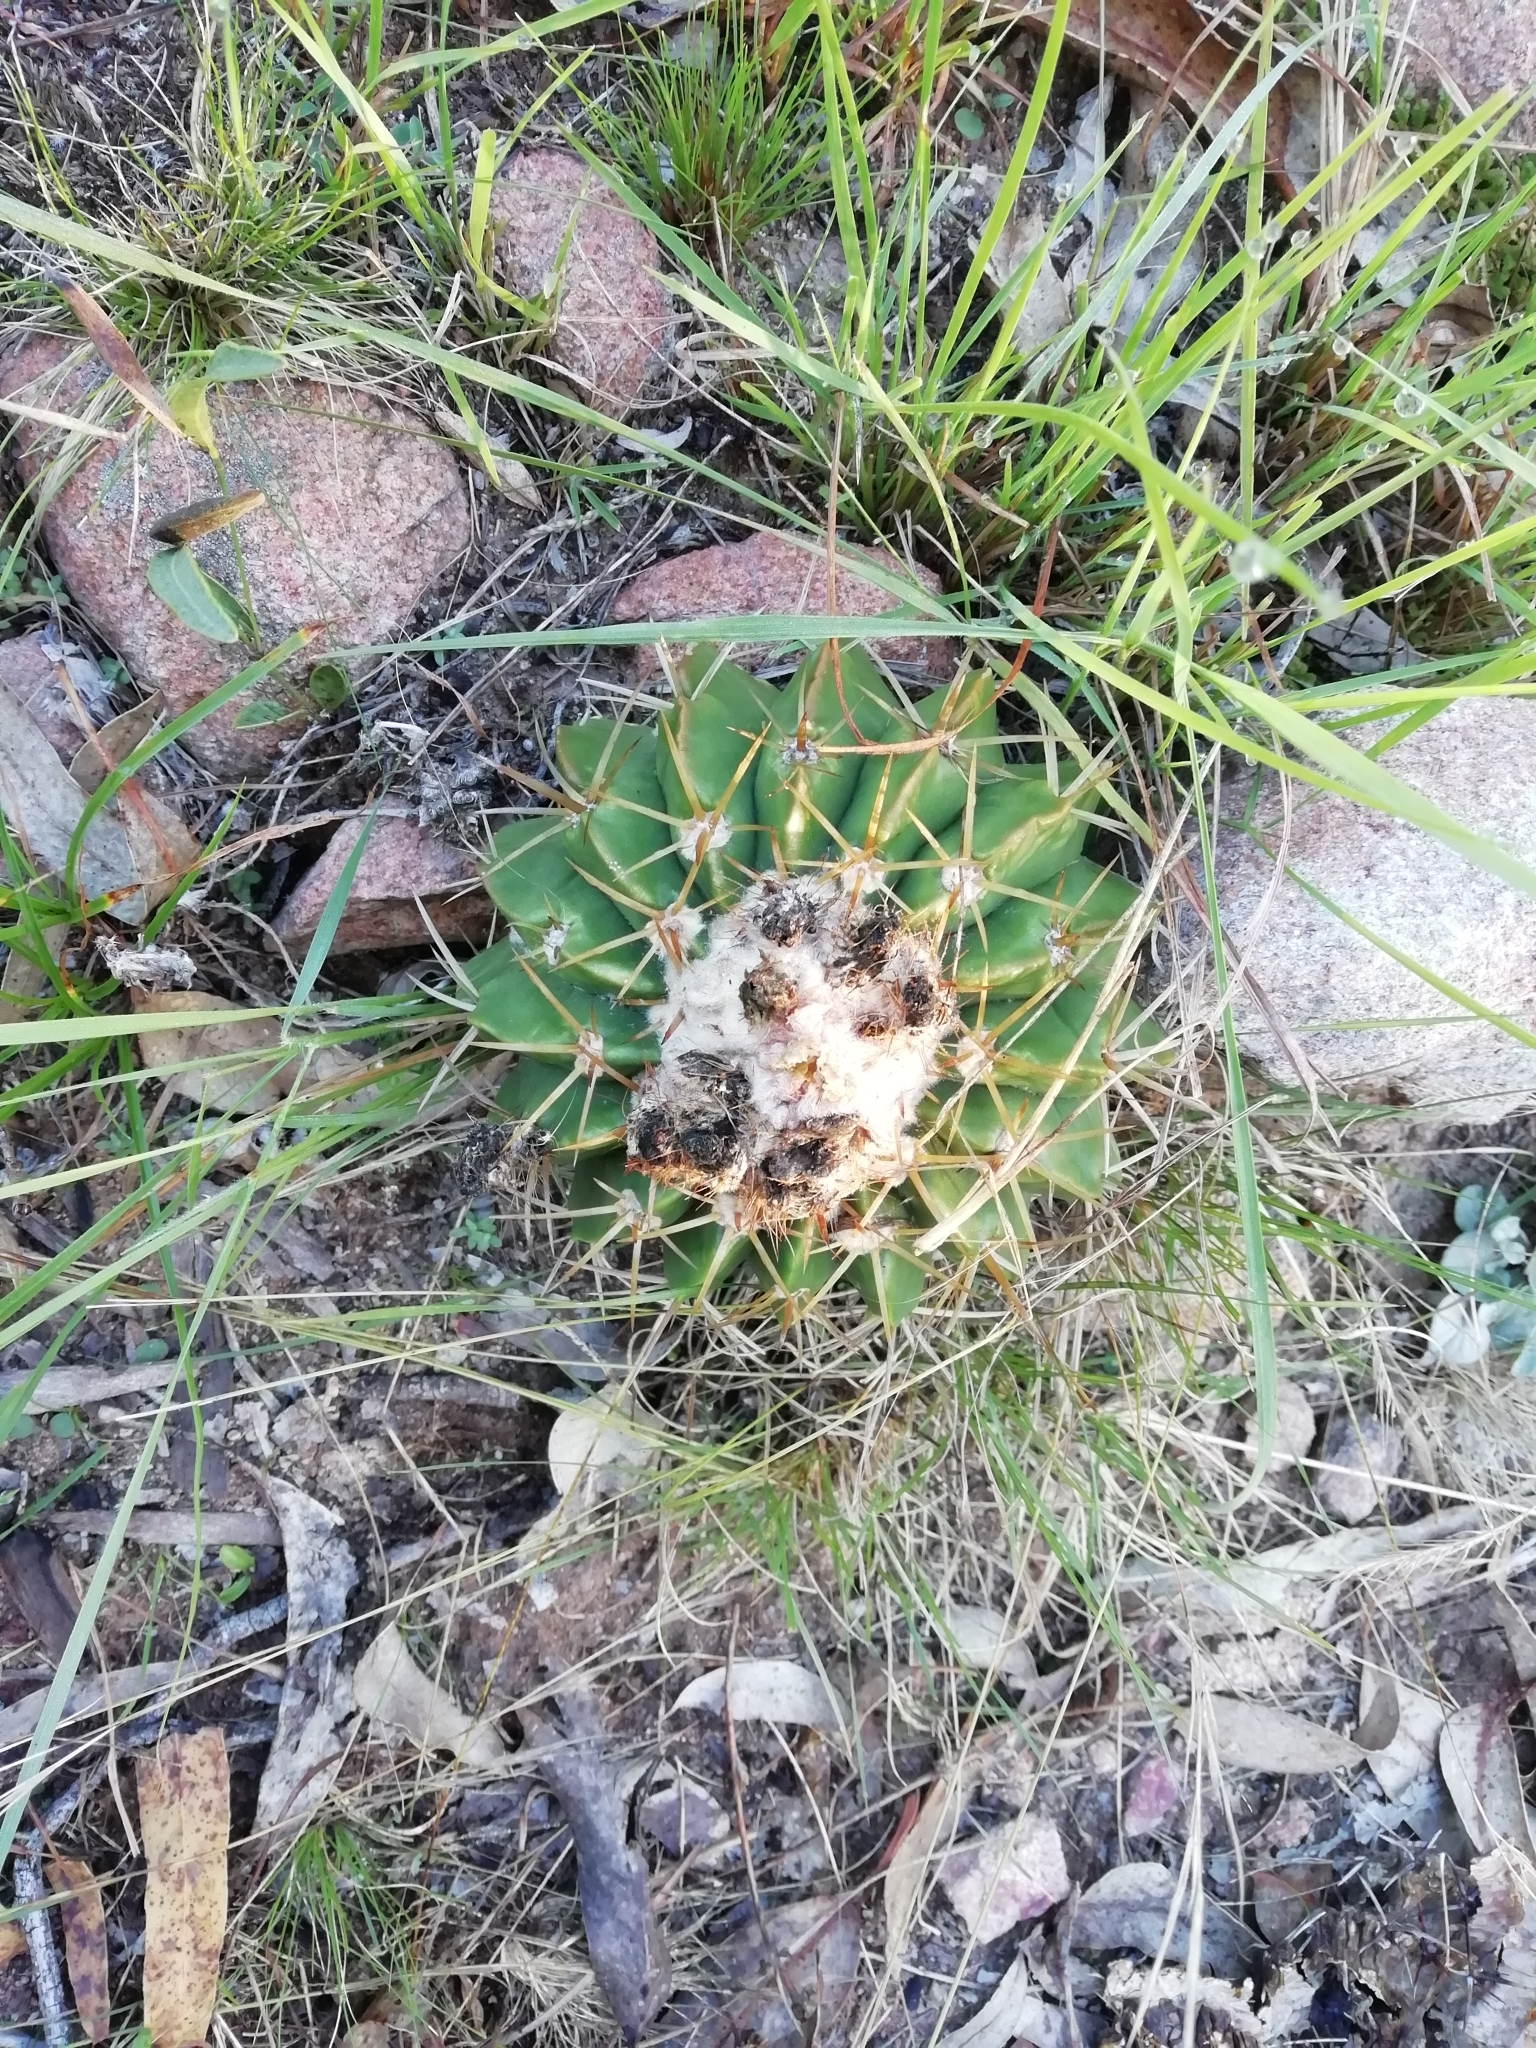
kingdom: Plantae
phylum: Tracheophyta
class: Magnoliopsida
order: Caryophyllales
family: Cactaceae
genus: Parodia
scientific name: Parodia erinacea
